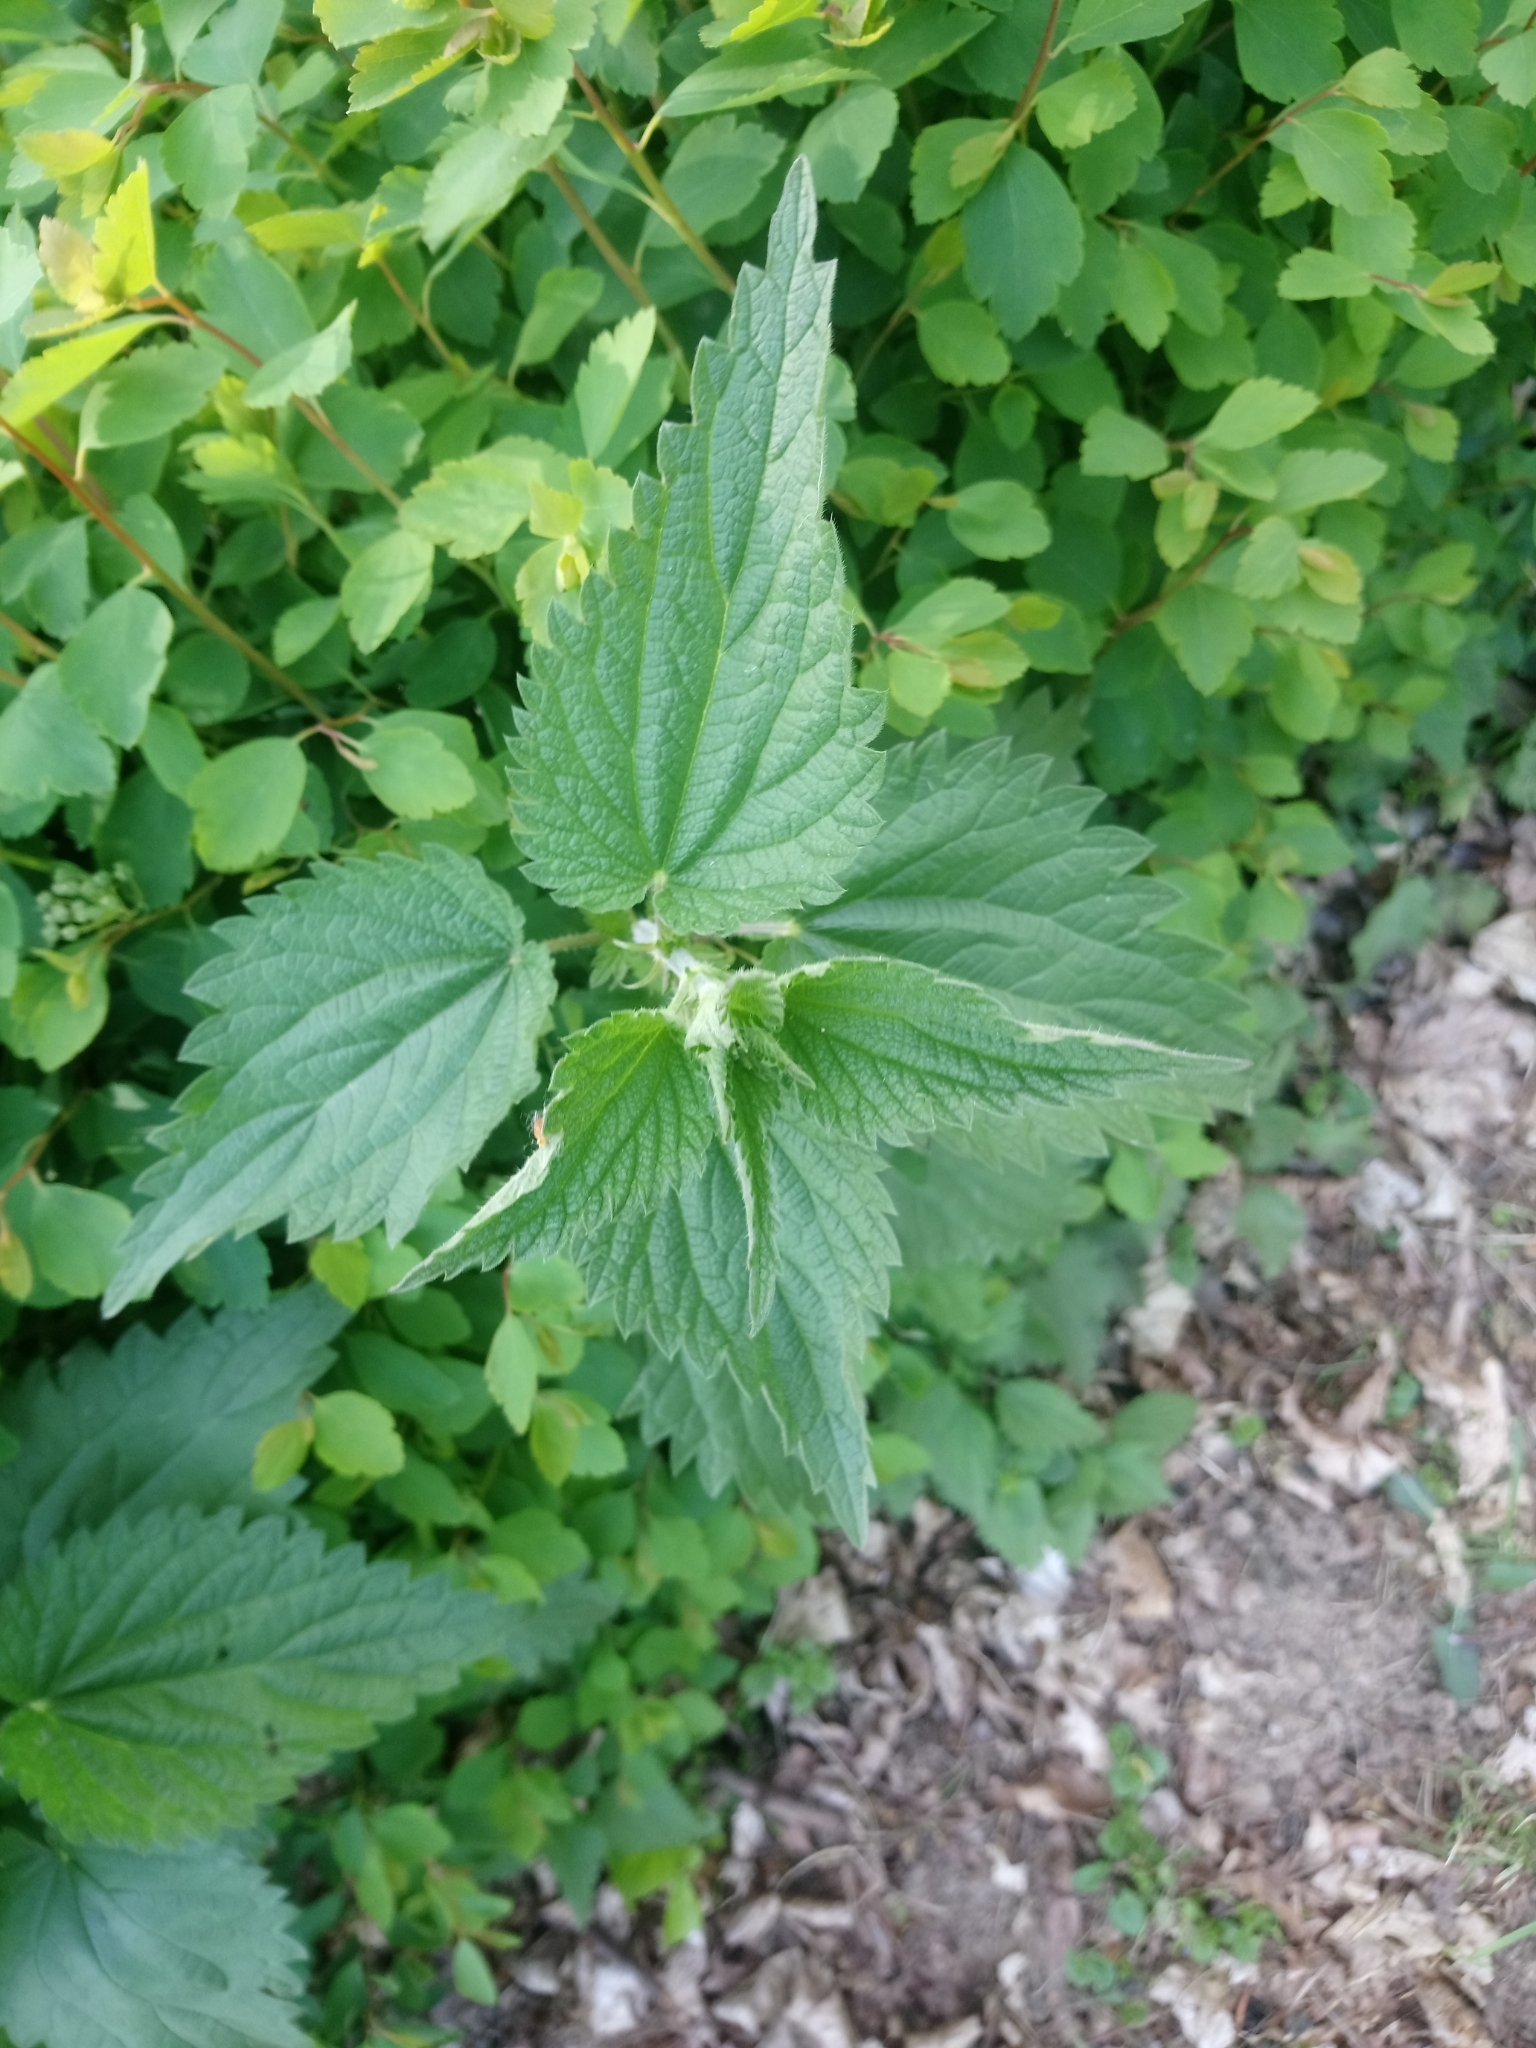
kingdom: Plantae
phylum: Tracheophyta
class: Magnoliopsida
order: Rosales
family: Urticaceae
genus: Urtica
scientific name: Urtica dioica
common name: Common nettle
